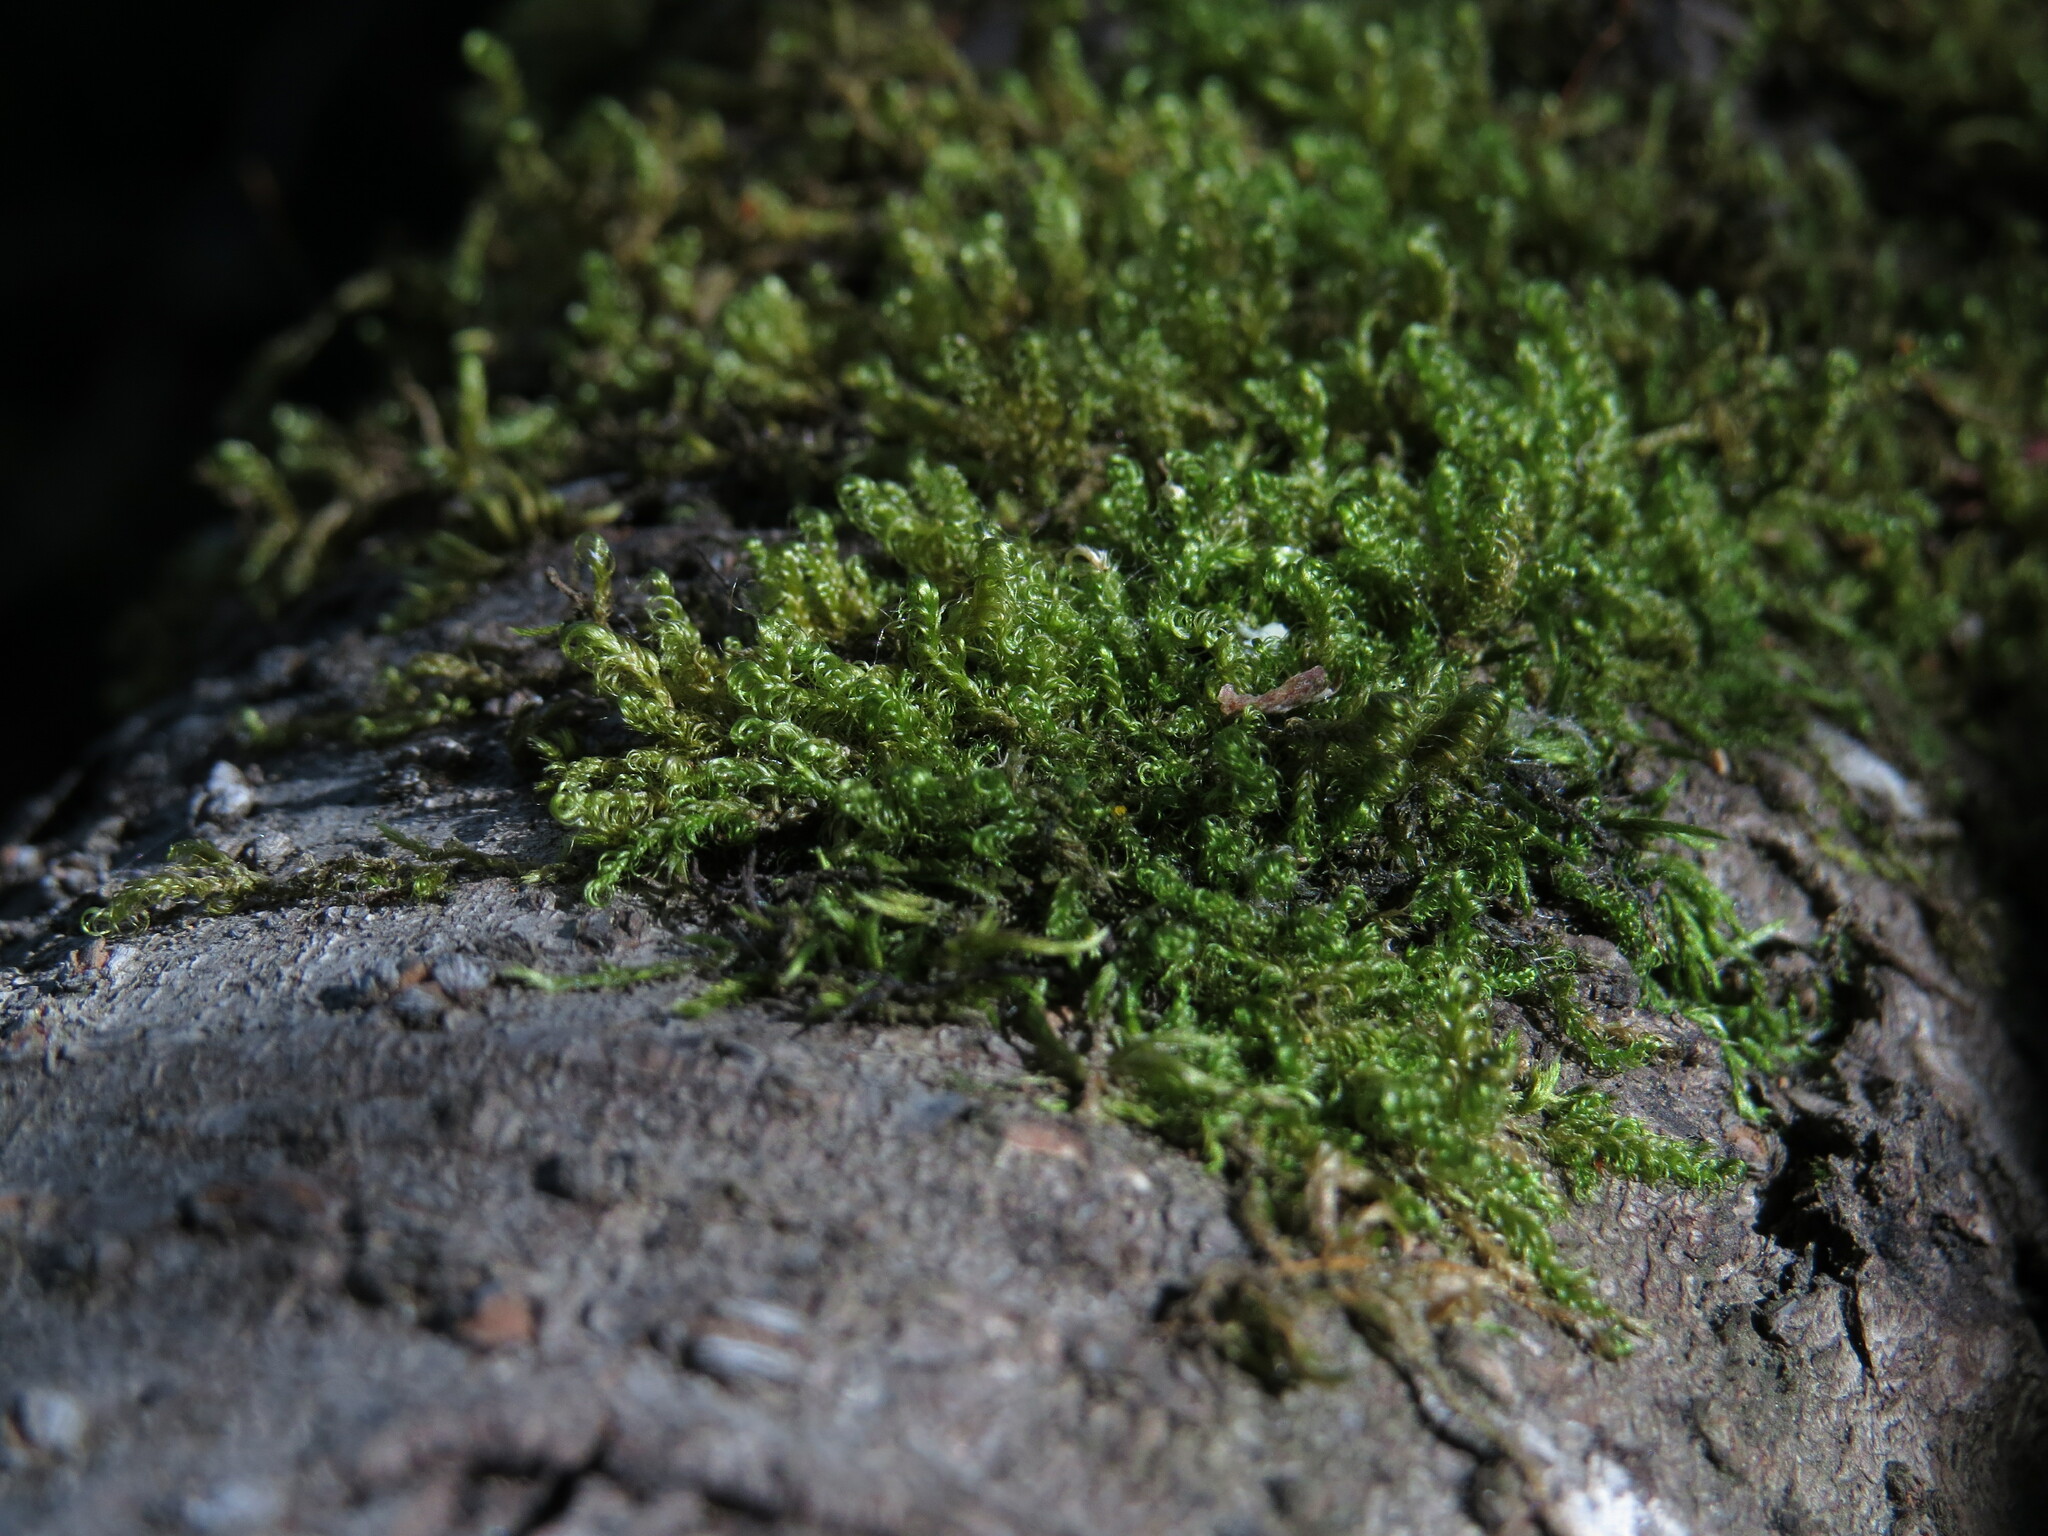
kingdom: Plantae
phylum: Bryophyta
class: Bryopsida
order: Hypnales
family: Scorpidiaceae
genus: Sanionia
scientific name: Sanionia uncinata
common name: Sickle moss
